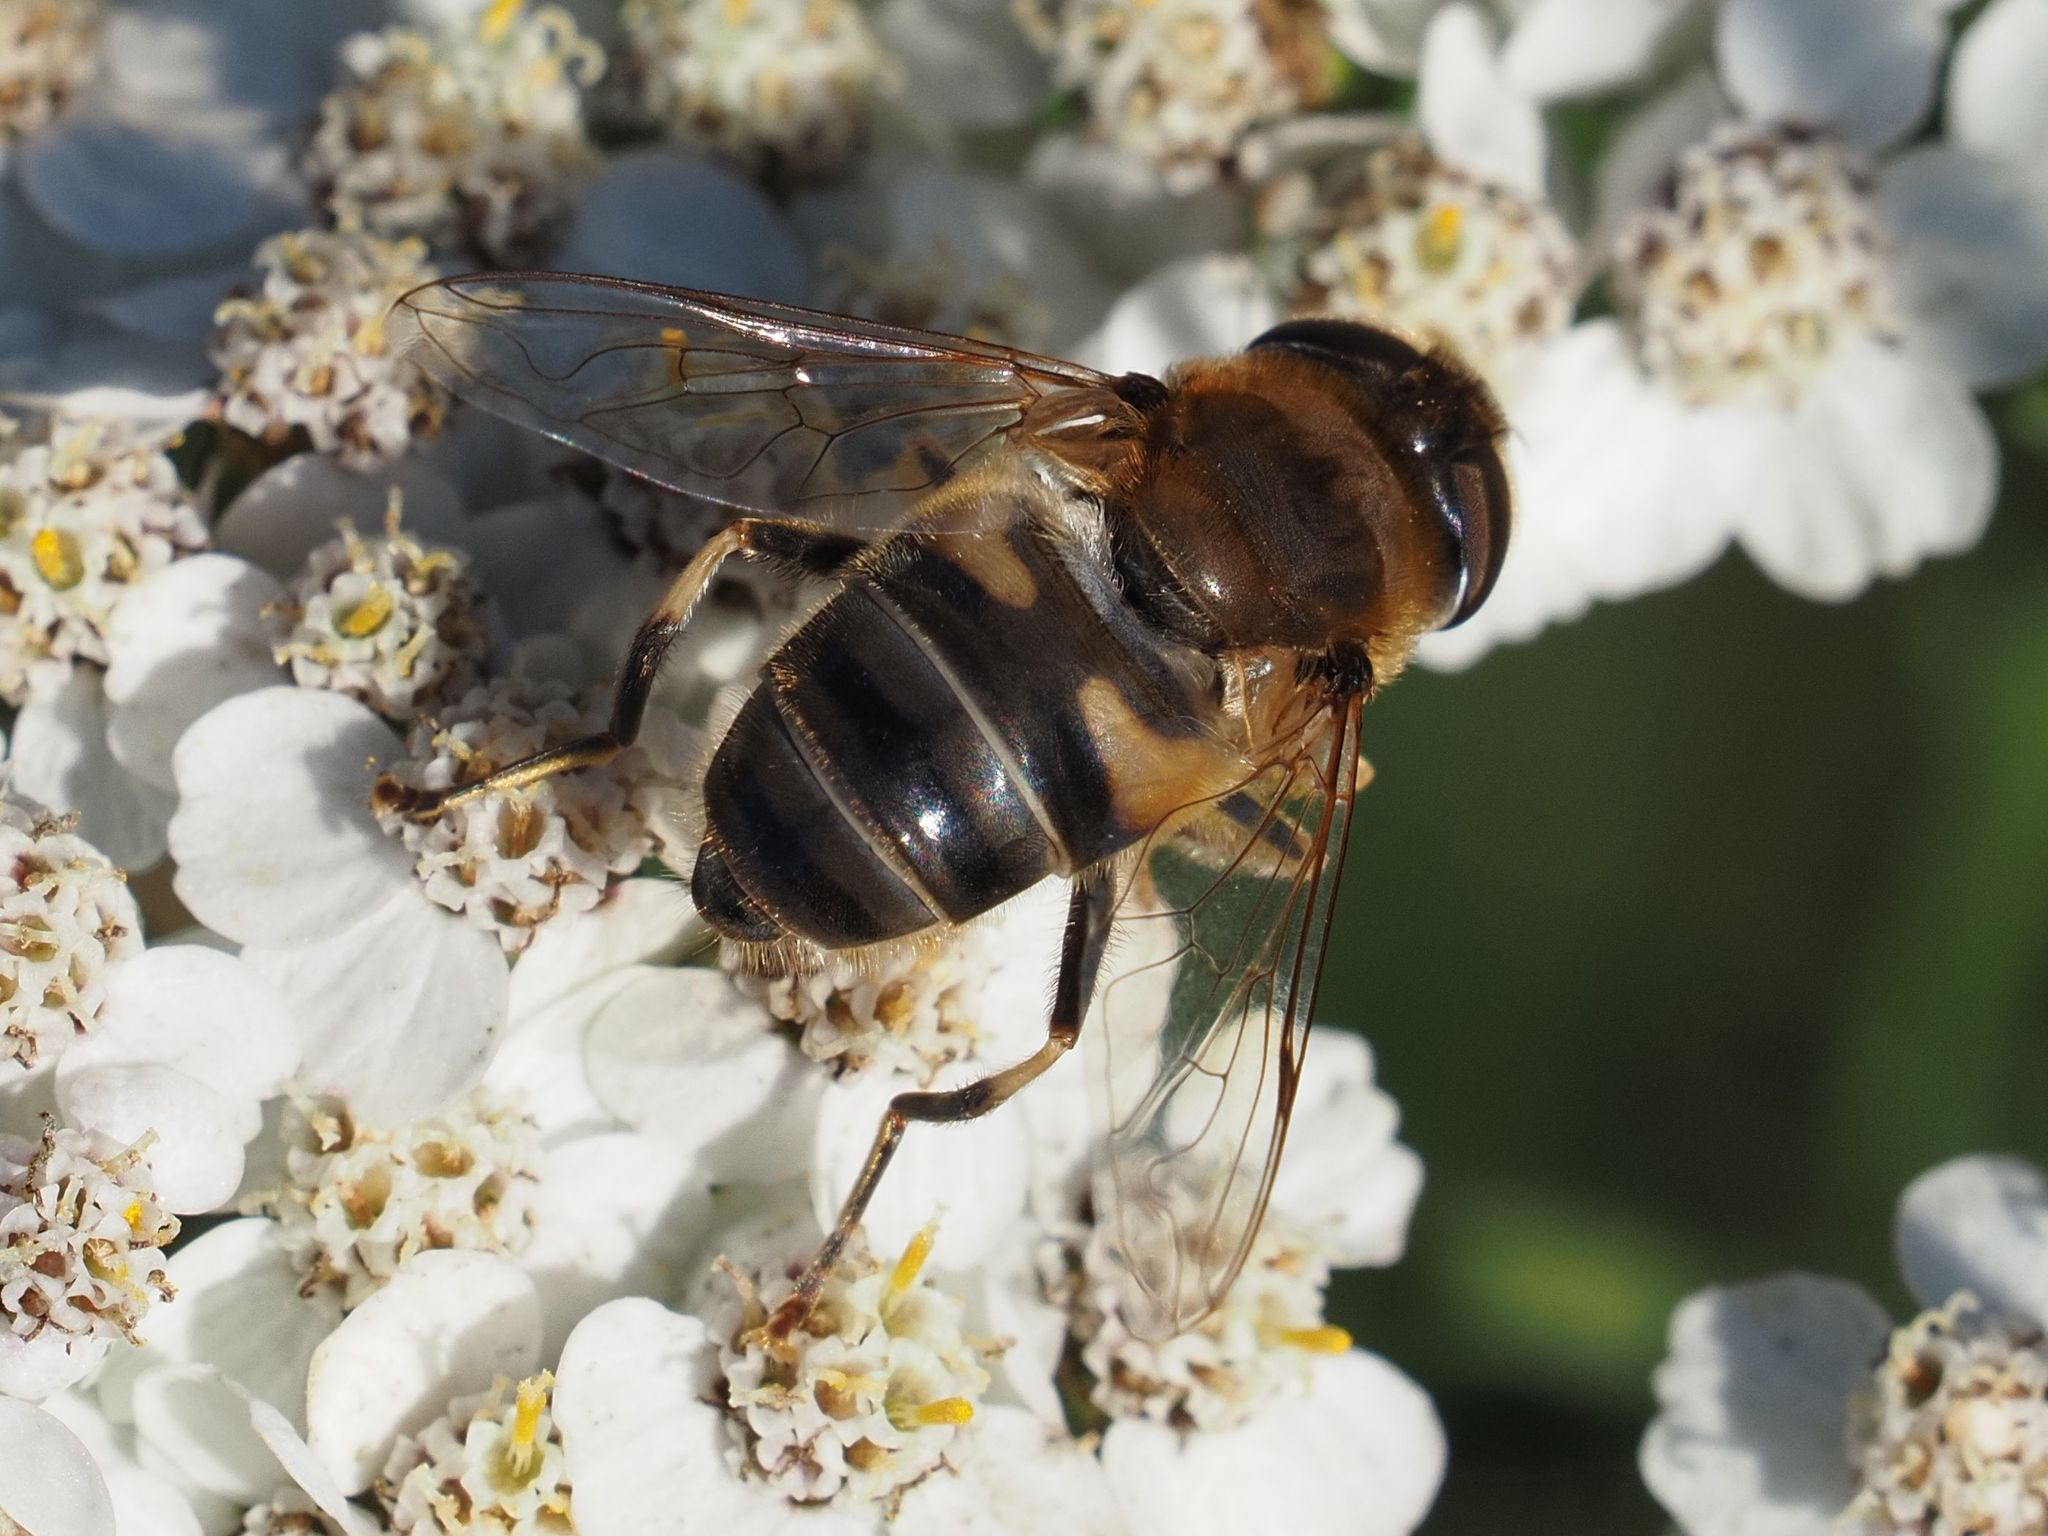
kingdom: Animalia
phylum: Arthropoda
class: Insecta
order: Diptera
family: Syrphidae
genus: Eristalis
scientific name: Eristalis pertinax
